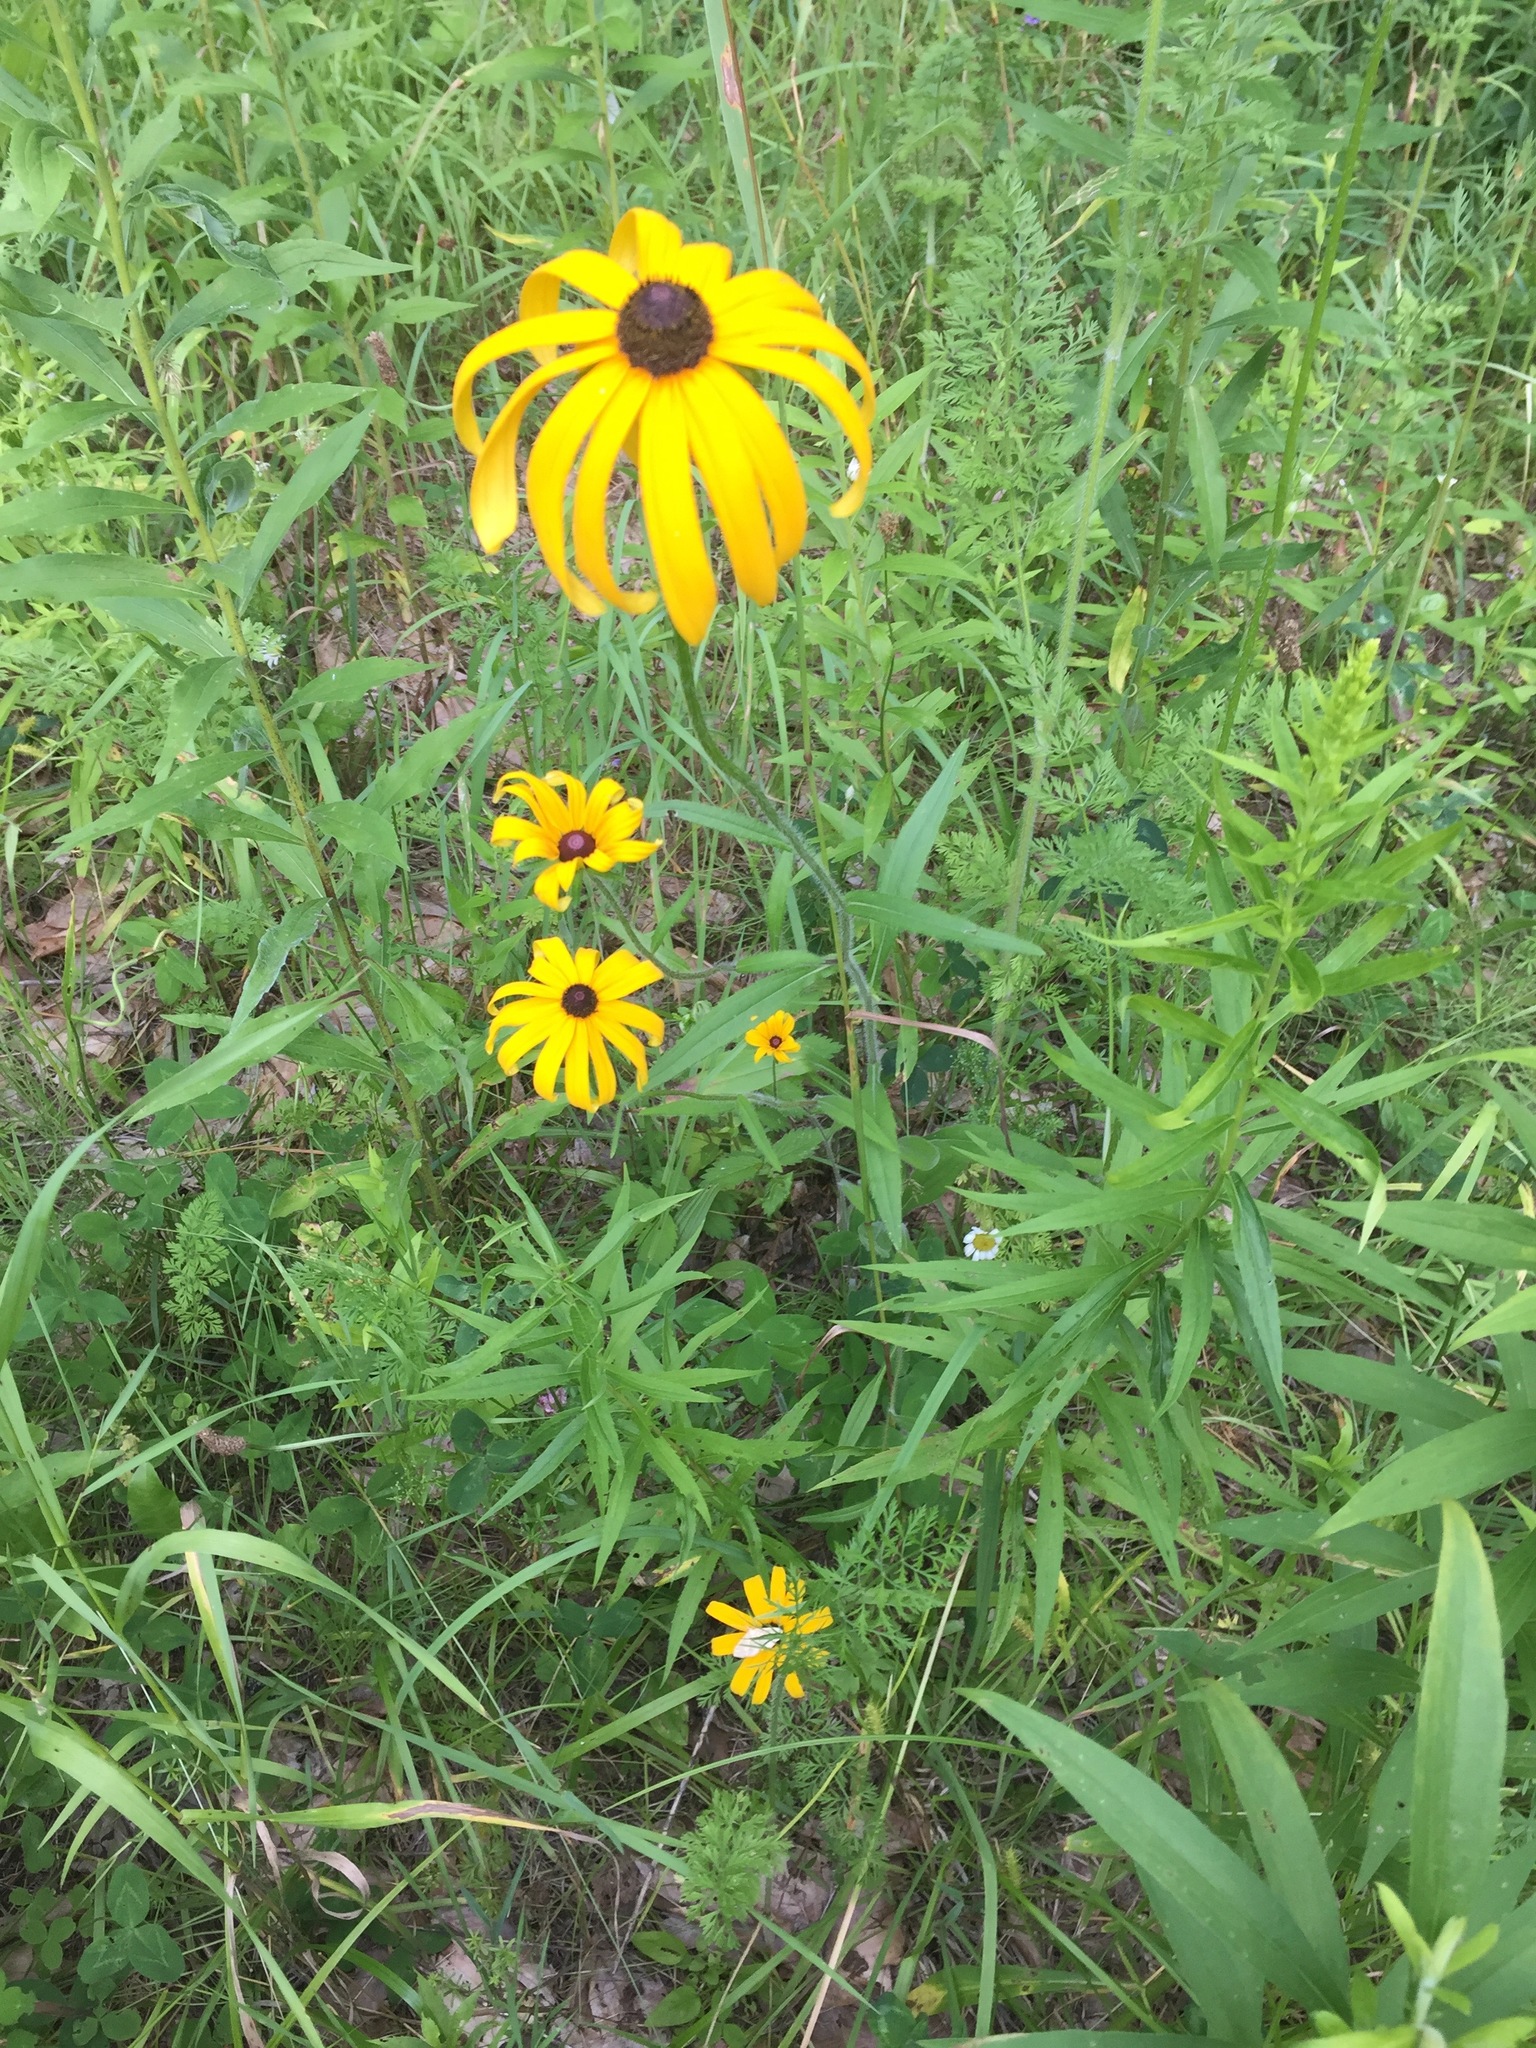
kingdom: Plantae
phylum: Tracheophyta
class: Magnoliopsida
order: Asterales
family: Asteraceae
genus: Rudbeckia
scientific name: Rudbeckia hirta
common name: Black-eyed-susan
